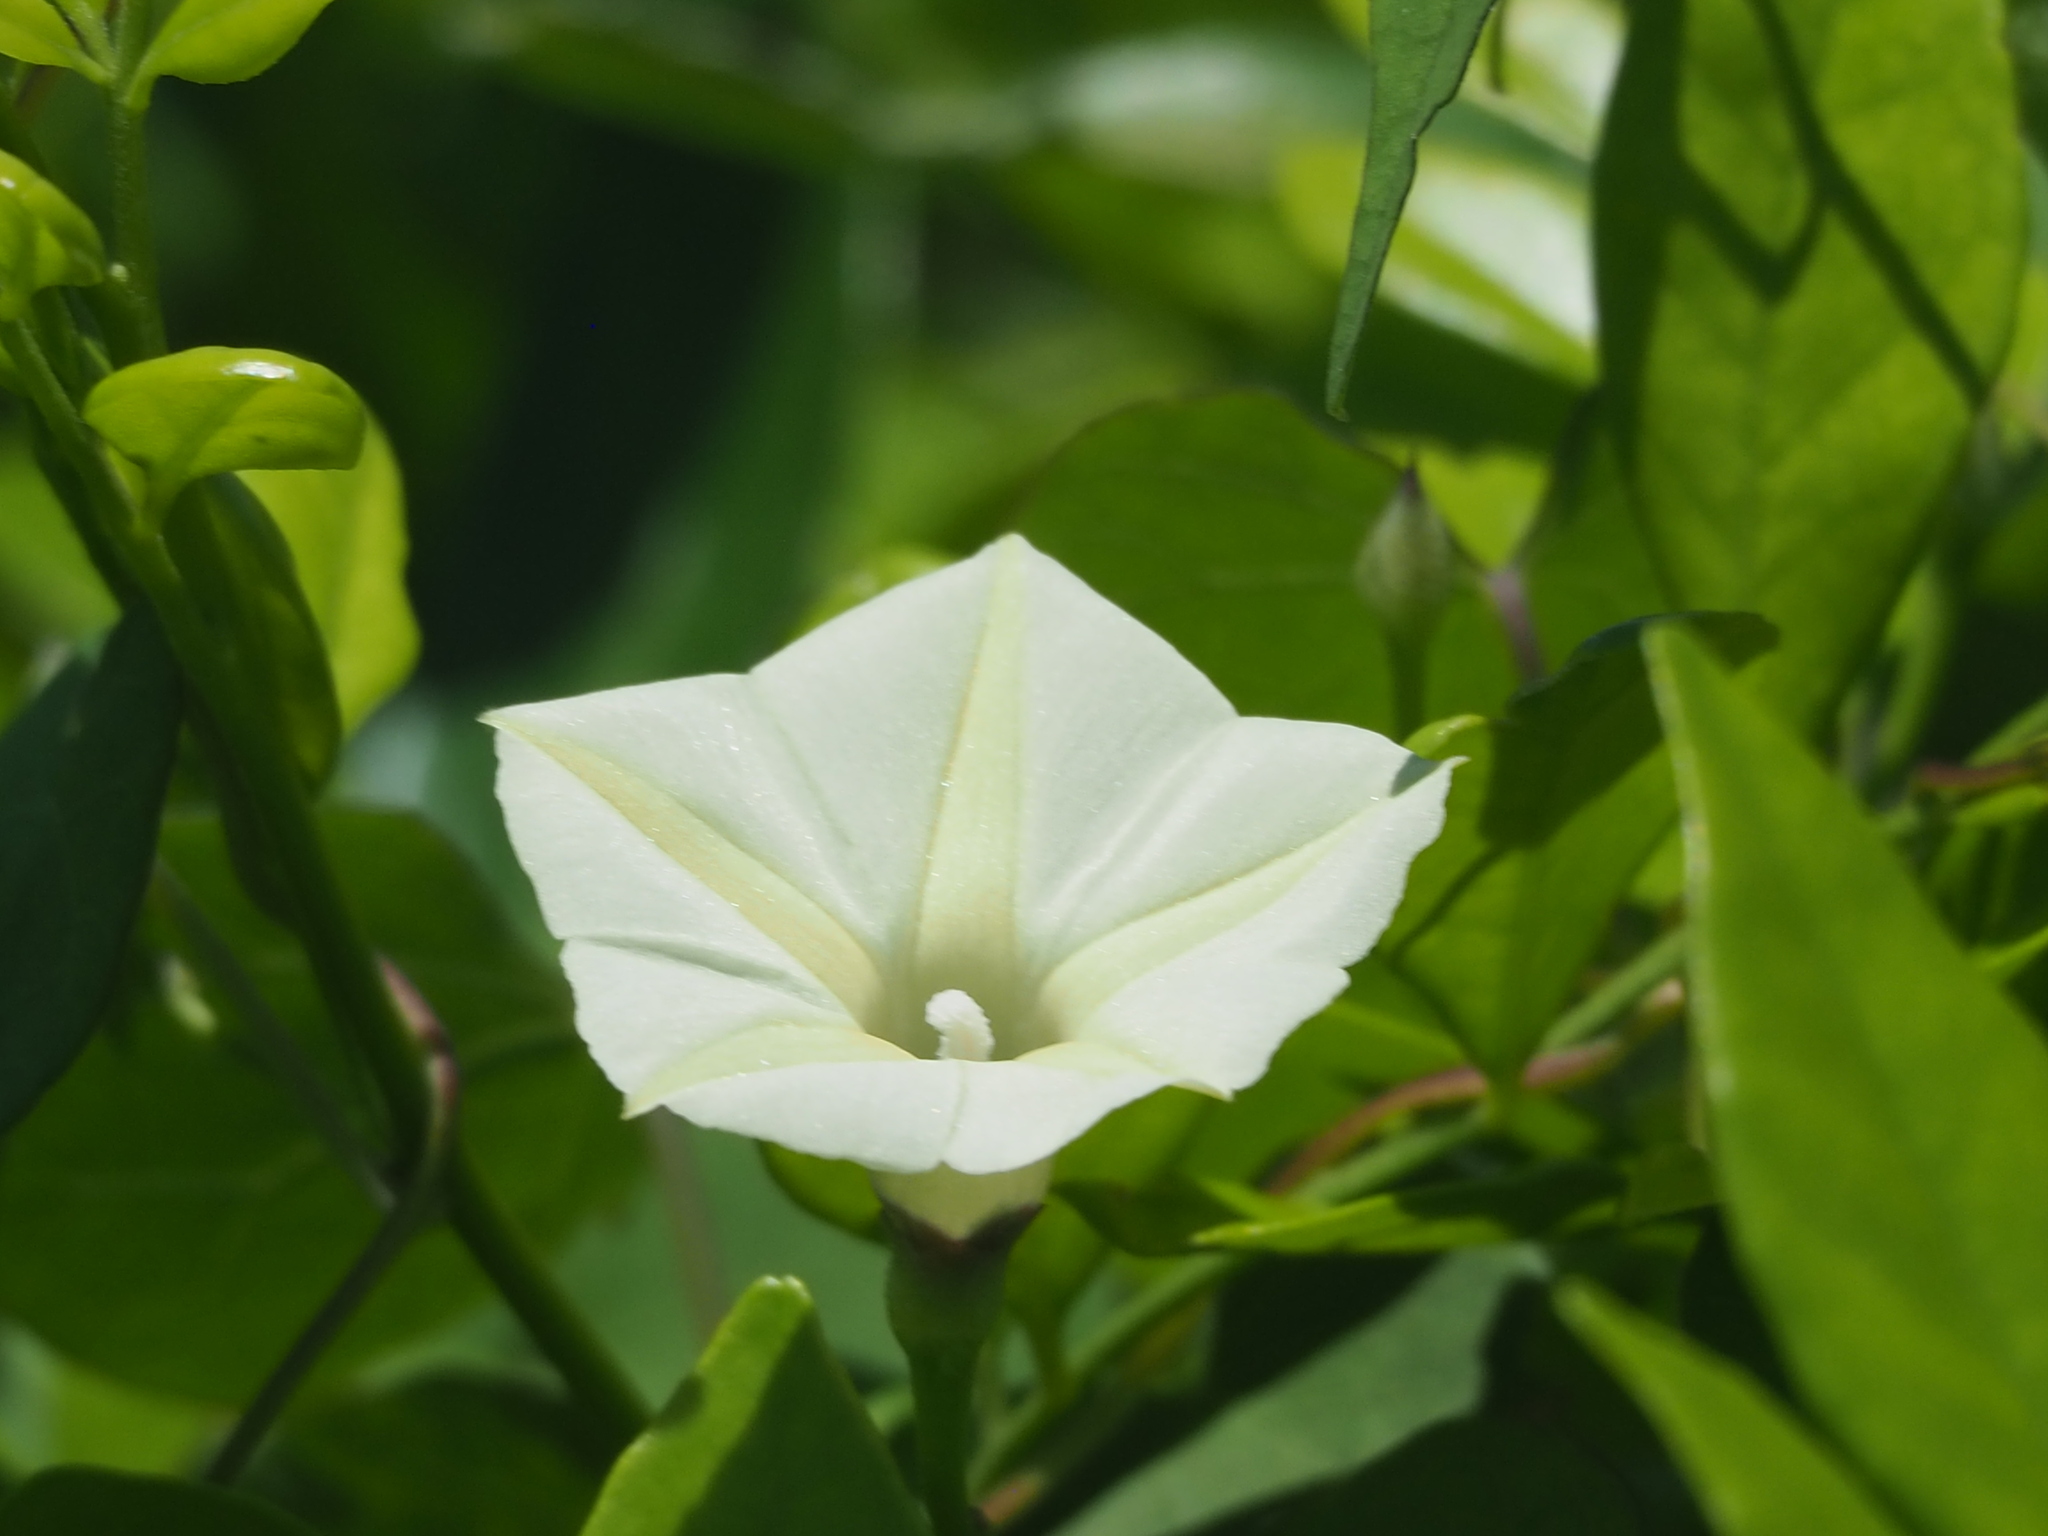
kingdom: Plantae
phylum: Tracheophyta
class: Magnoliopsida
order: Solanales
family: Convolvulaceae
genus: Ipomoea
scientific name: Ipomoea obscura
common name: Obscure morning-glory
